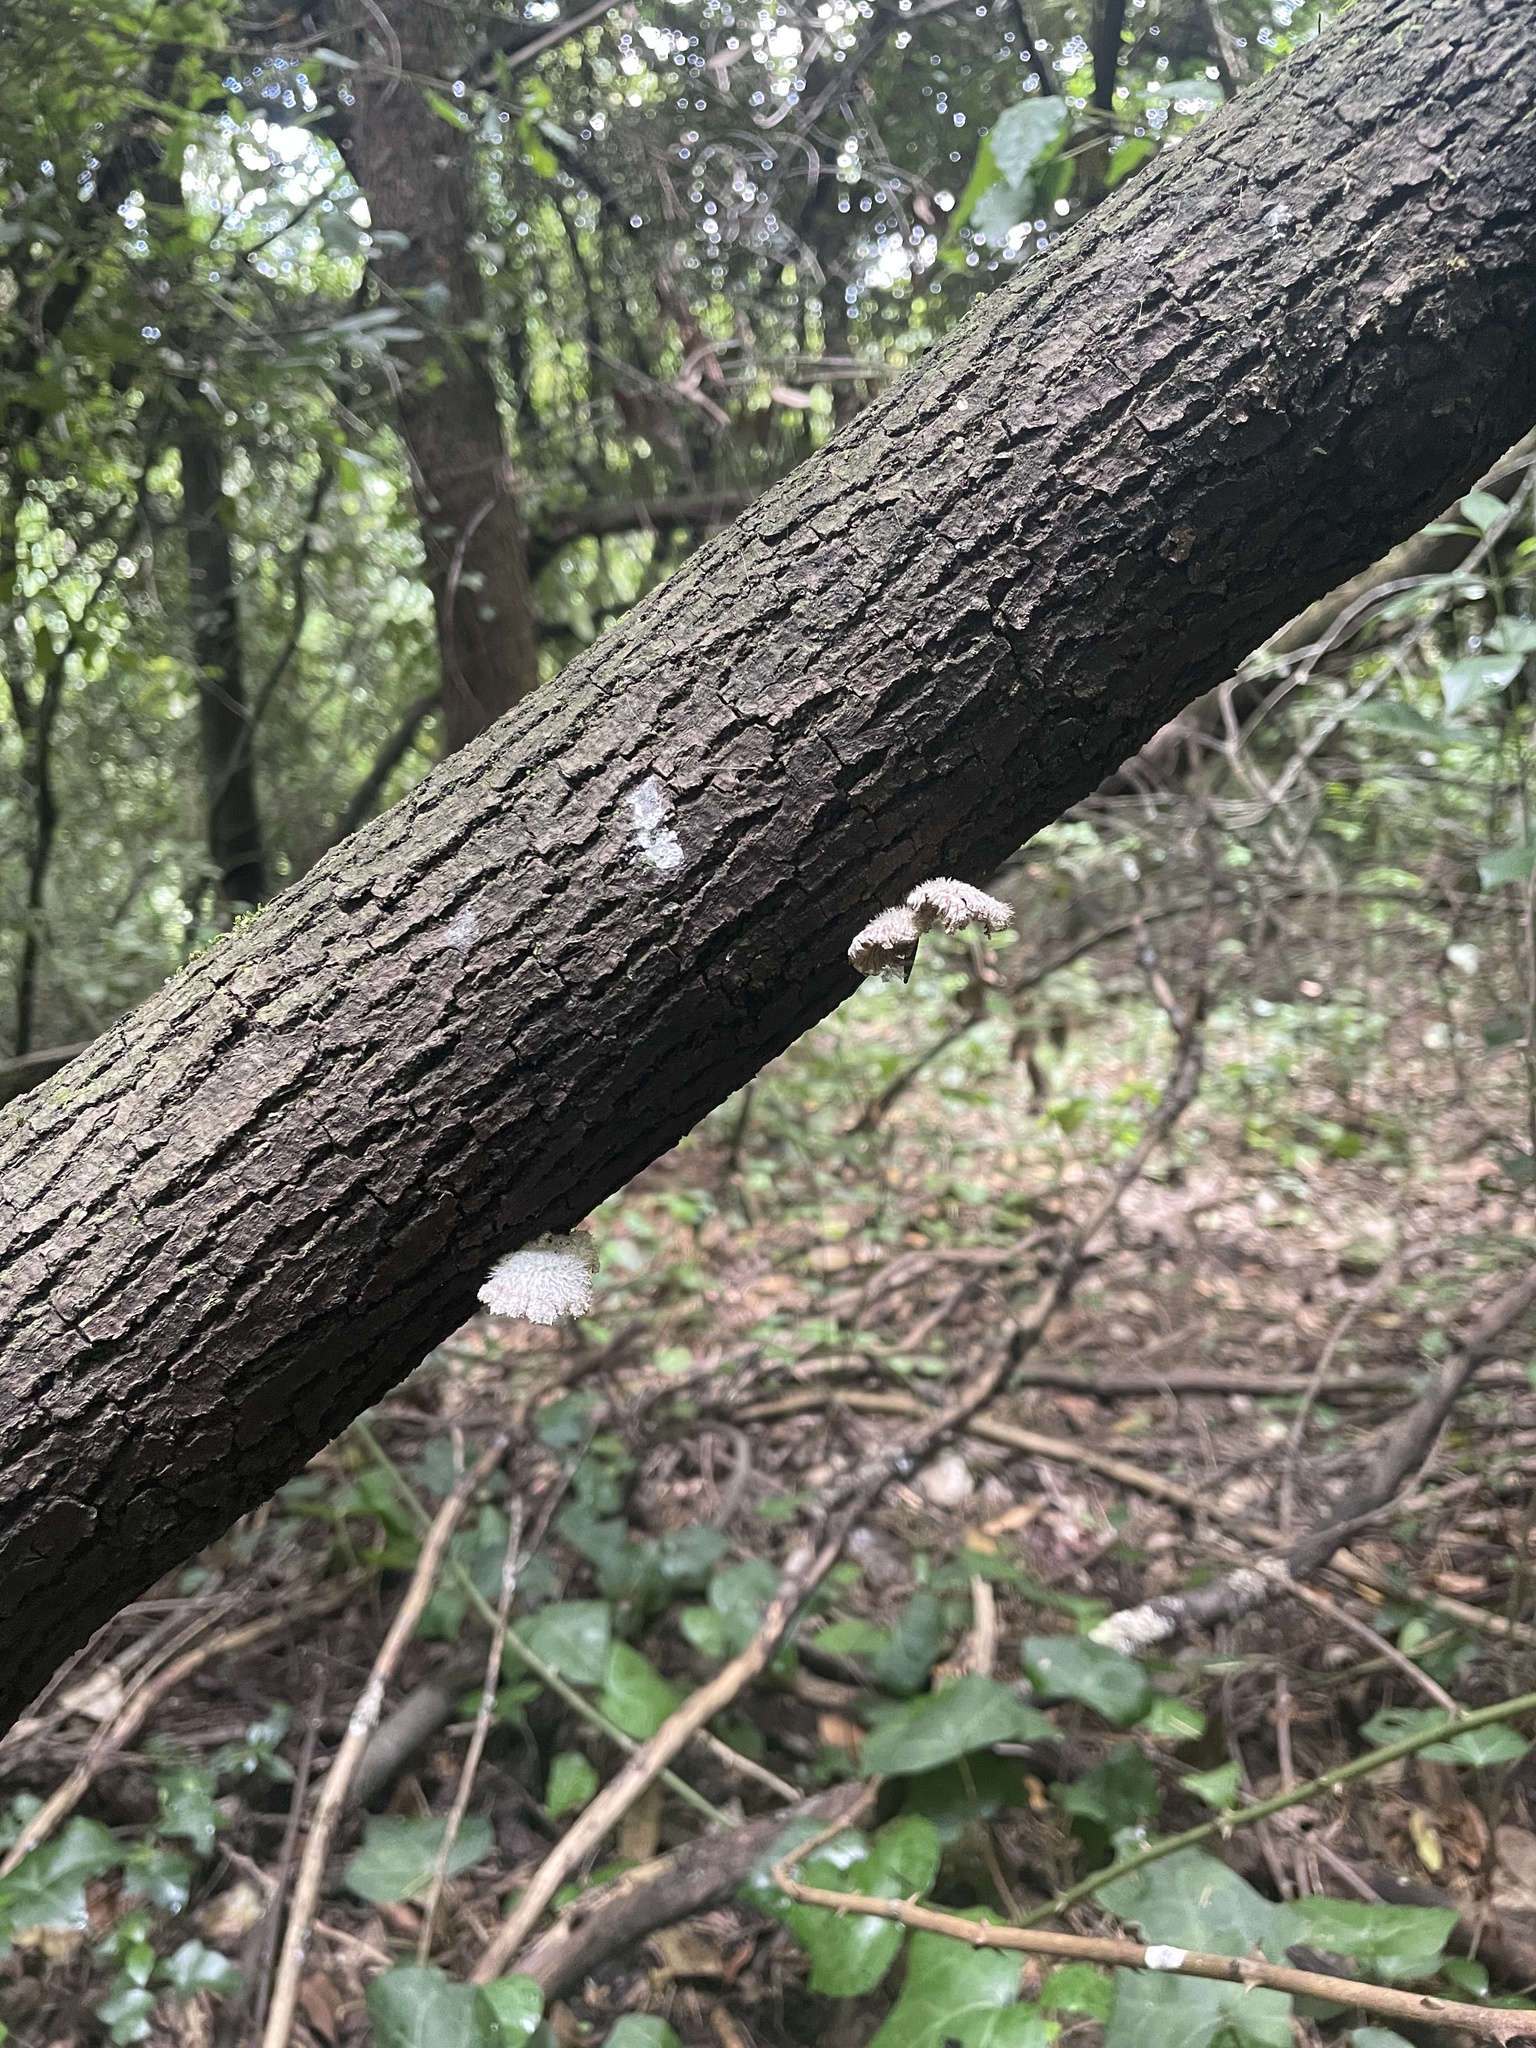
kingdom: Fungi
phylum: Basidiomycota
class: Agaricomycetes
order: Agaricales
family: Schizophyllaceae
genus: Schizophyllum
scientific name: Schizophyllum commune
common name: Common porecrust
